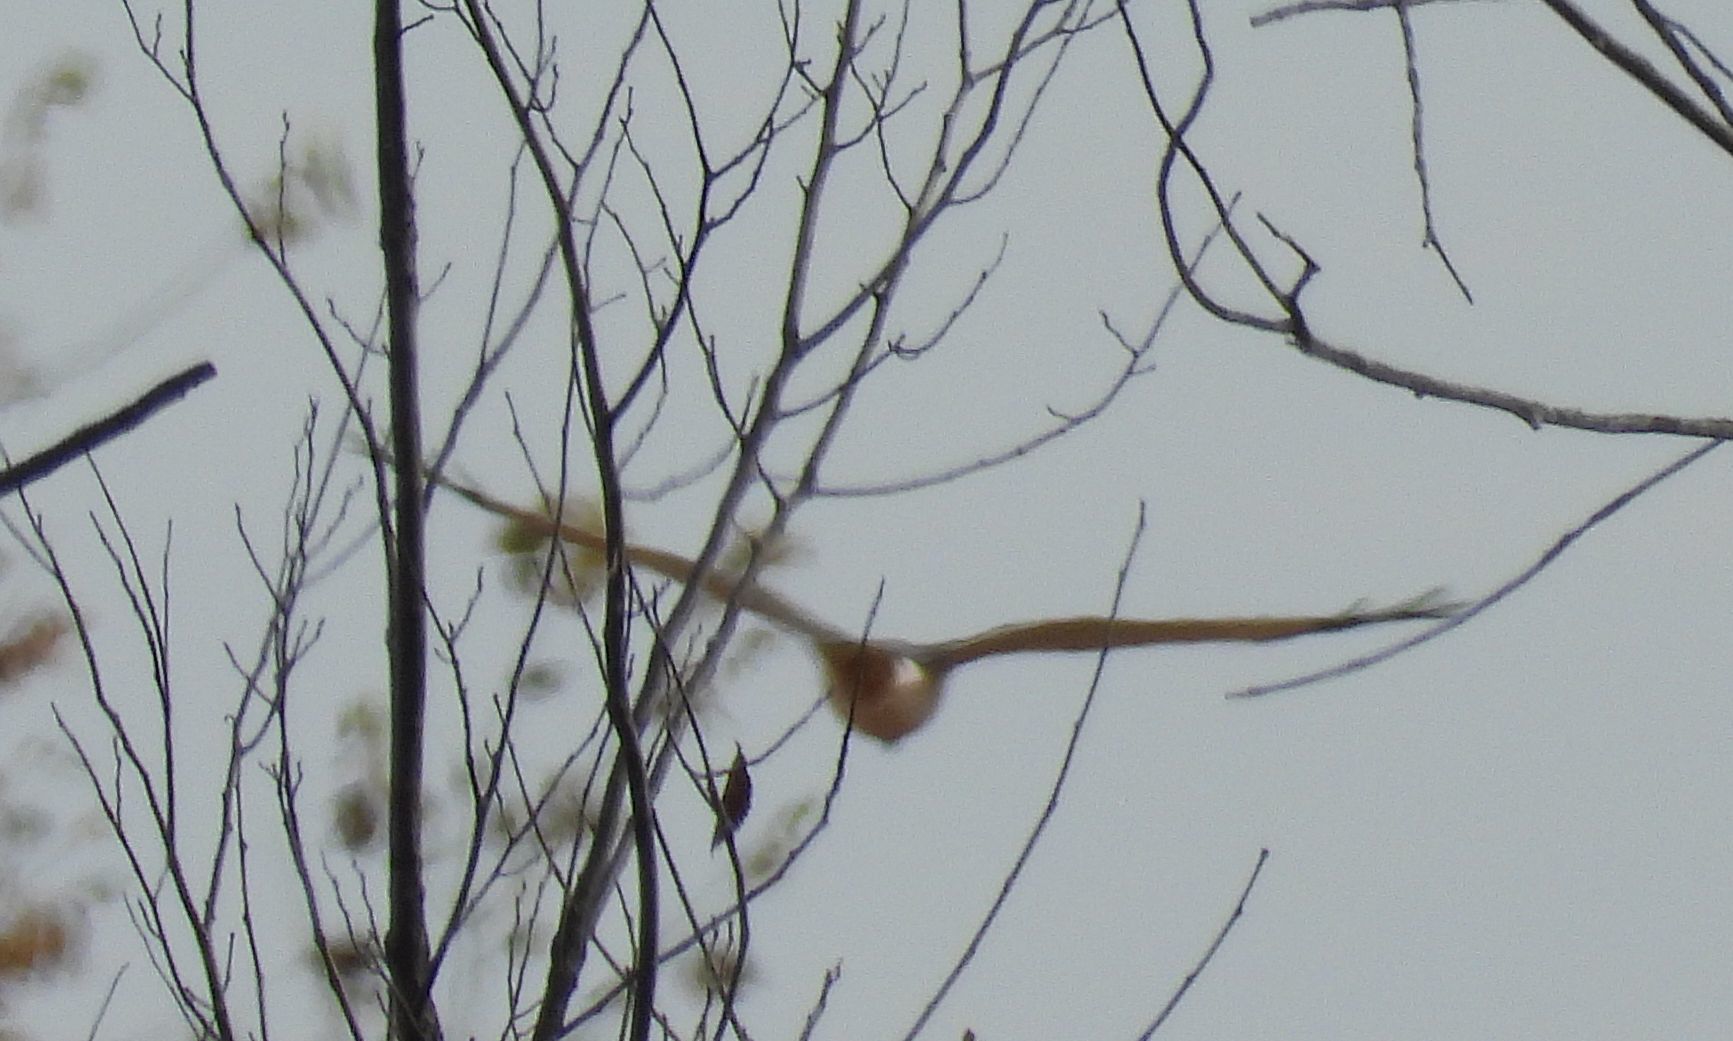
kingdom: Animalia
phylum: Chordata
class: Aves
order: Accipitriformes
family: Accipitridae
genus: Circus
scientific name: Circus cyaneus
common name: Hen harrier
